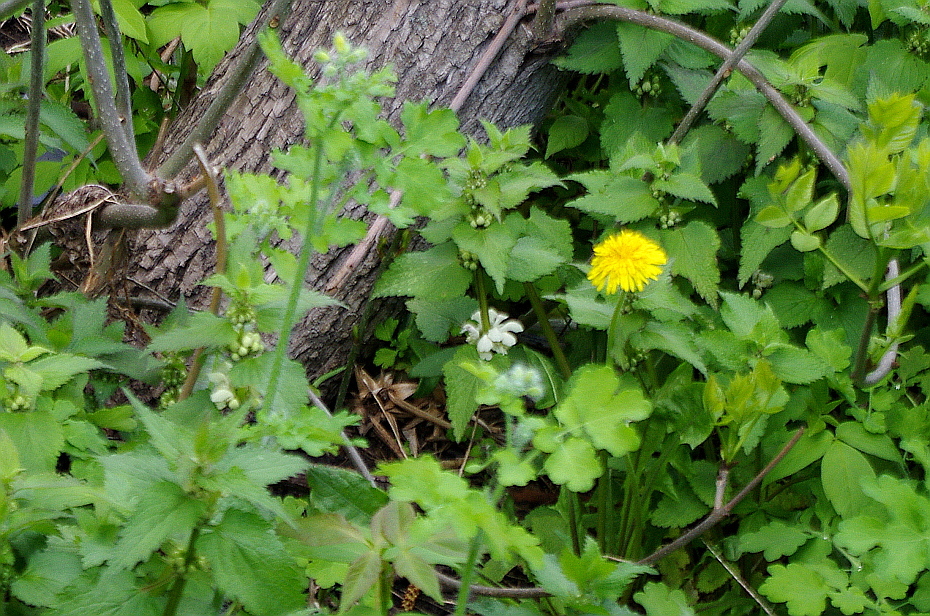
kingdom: Plantae
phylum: Tracheophyta
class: Magnoliopsida
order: Lamiales
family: Lamiaceae
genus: Lamium
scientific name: Lamium album
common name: White dead-nettle
